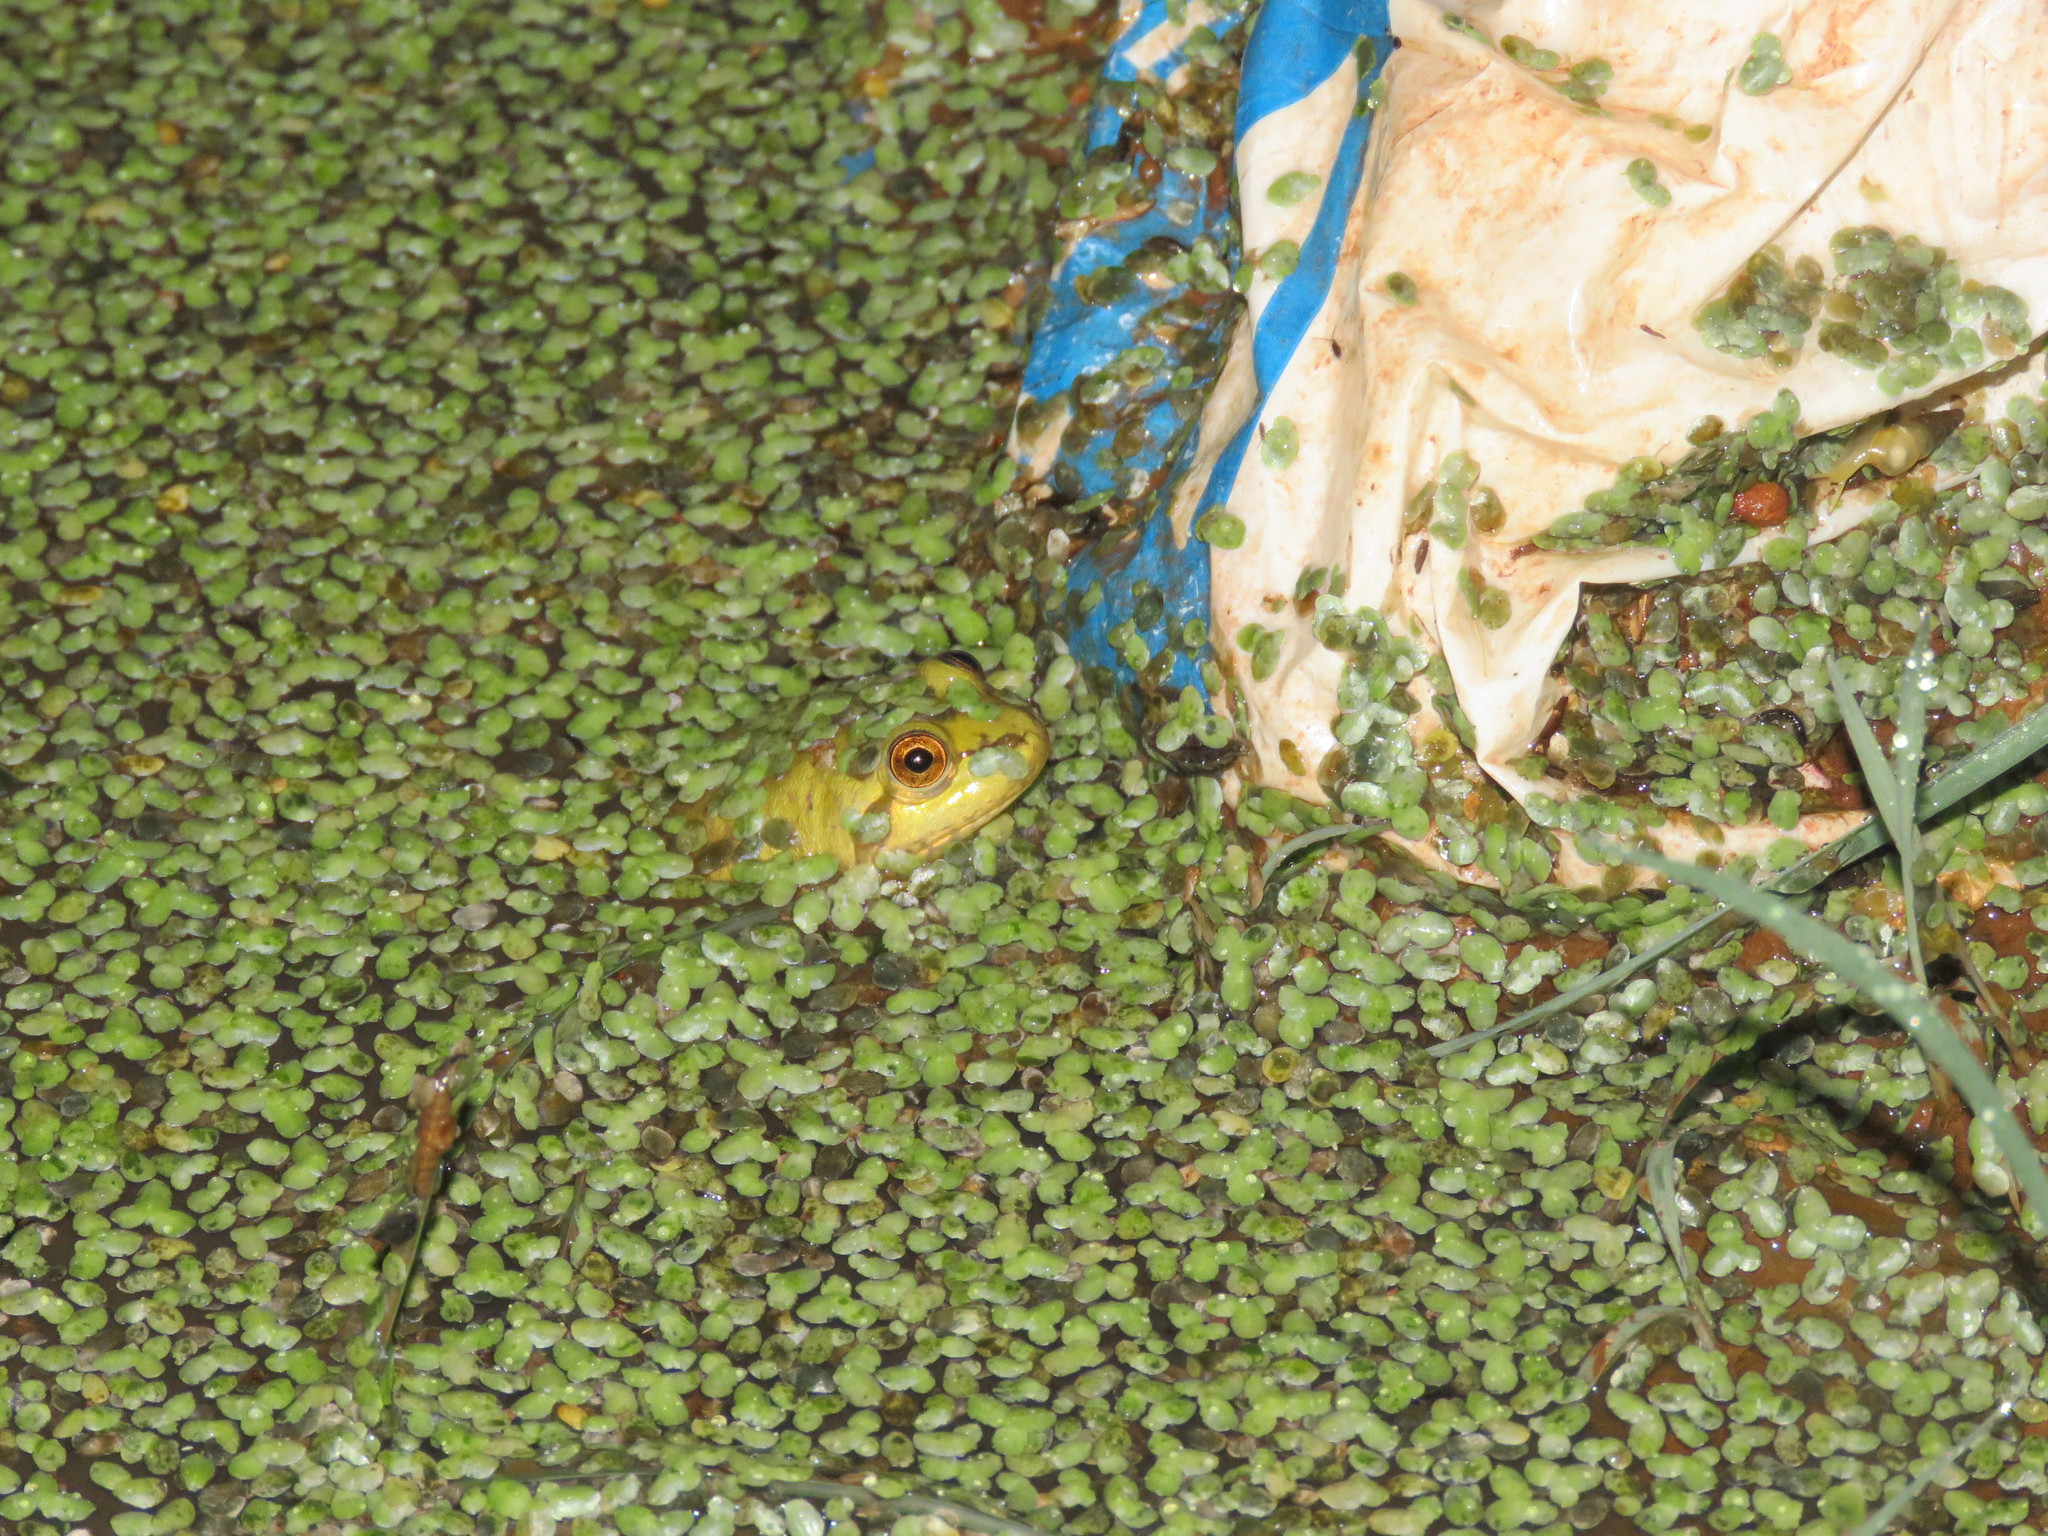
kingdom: Animalia
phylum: Chordata
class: Amphibia
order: Anura
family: Hylidae
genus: Pseudis
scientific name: Pseudis paradoxa
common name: Swimming frog
